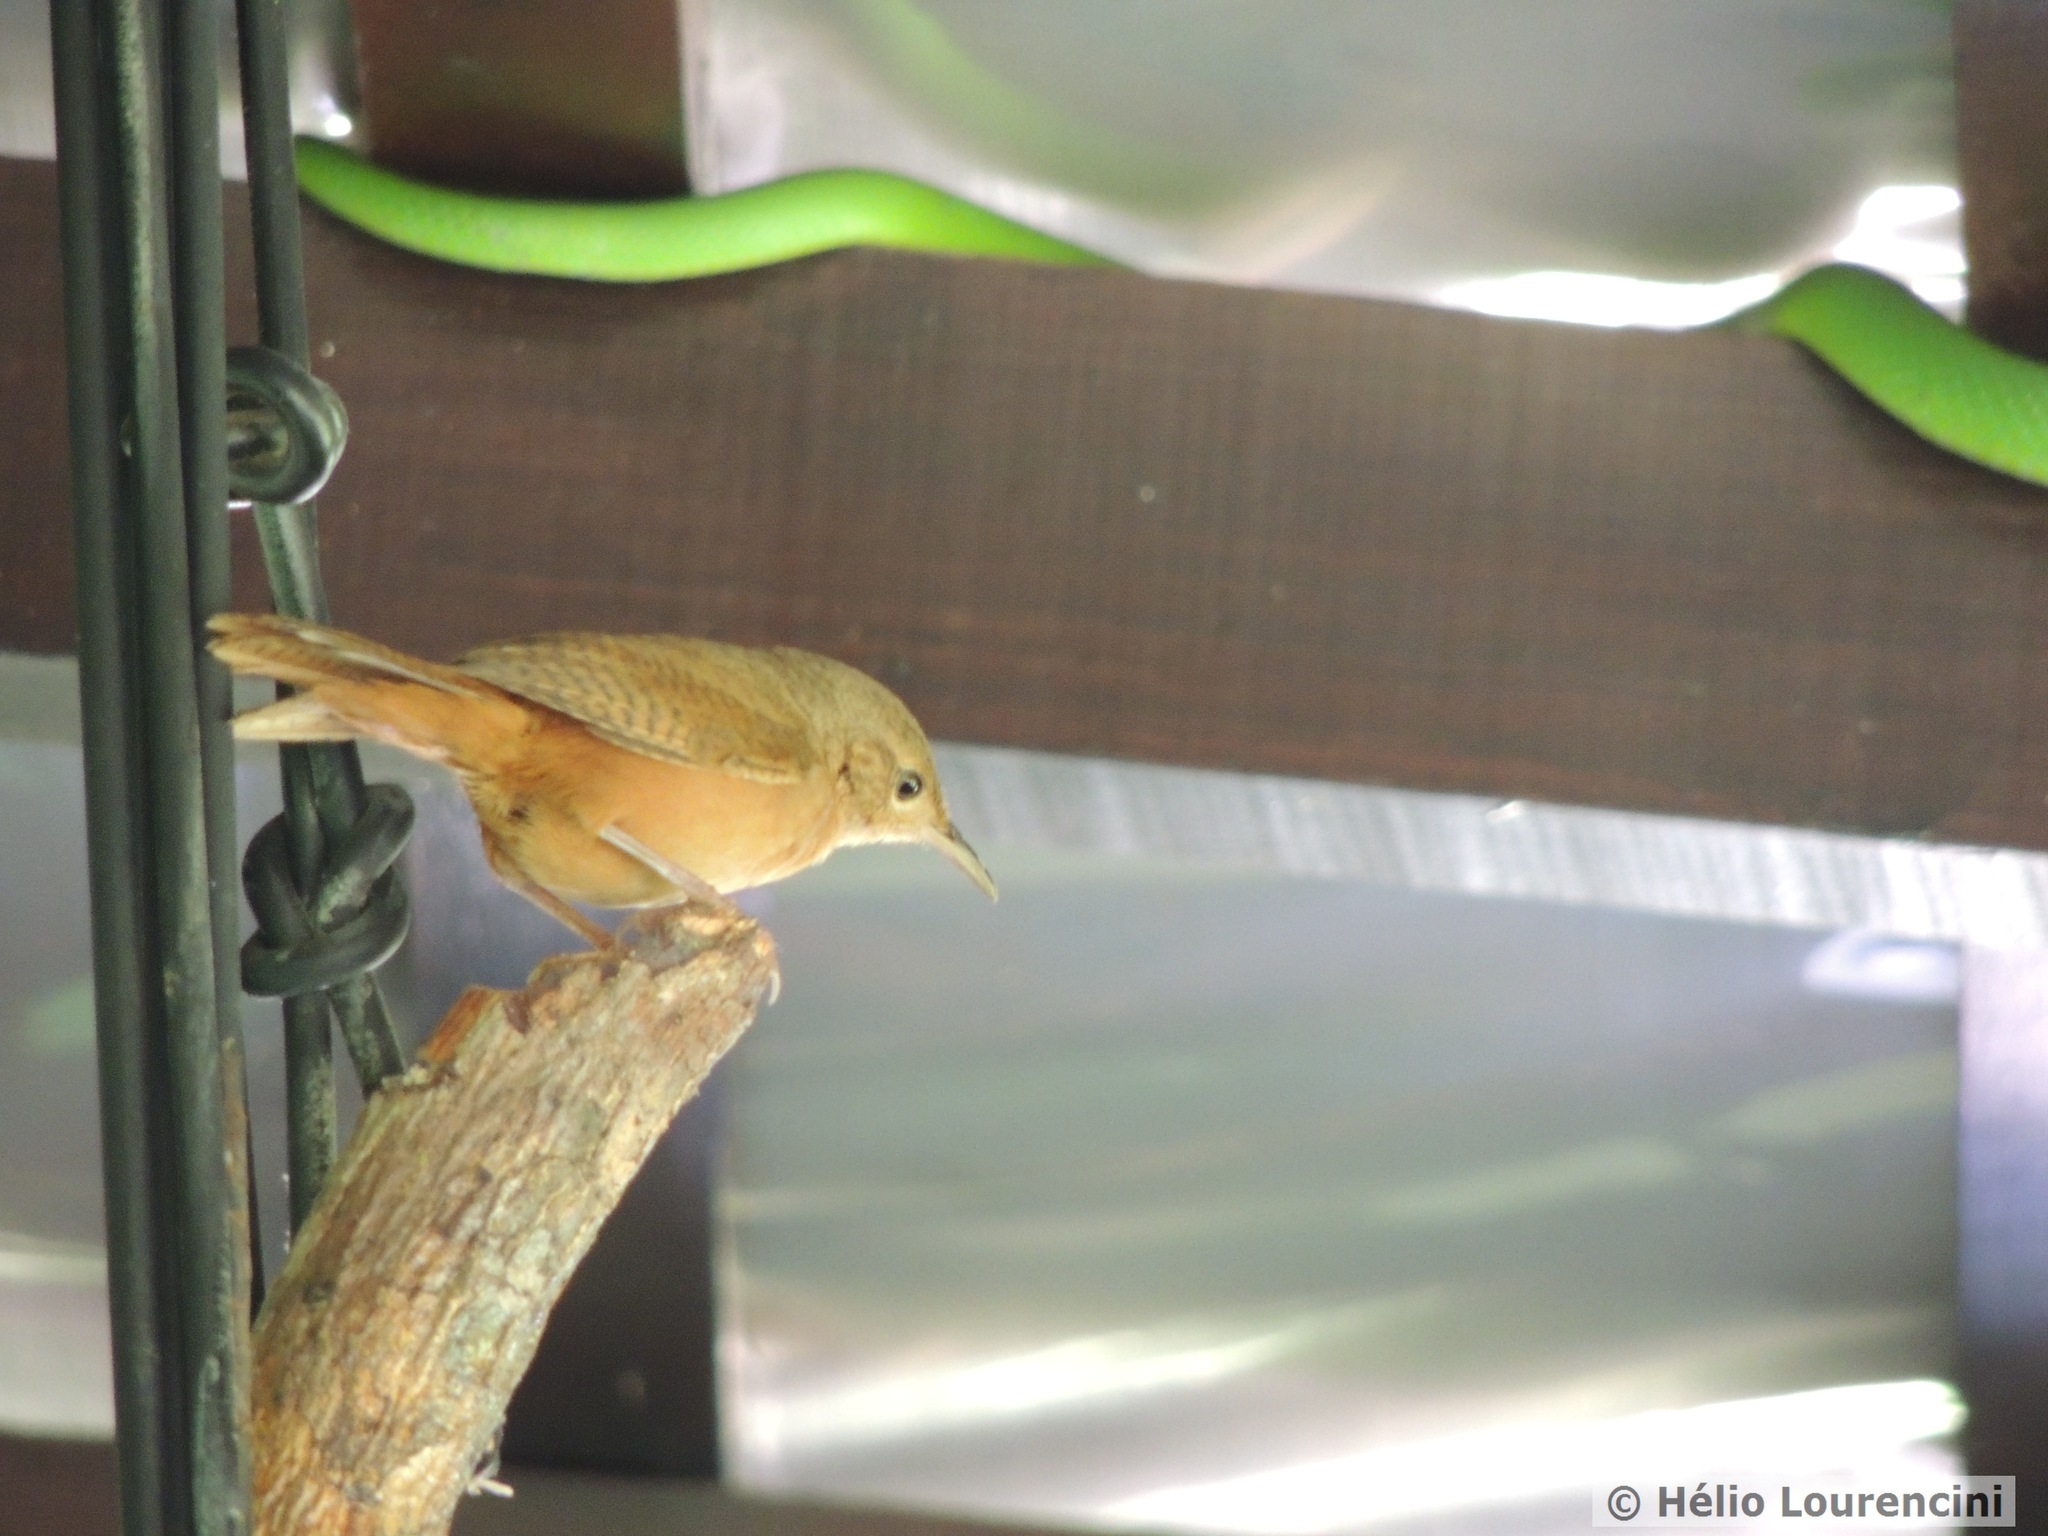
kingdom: Animalia
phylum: Chordata
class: Aves
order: Passeriformes
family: Troglodytidae
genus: Troglodytes
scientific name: Troglodytes aedon
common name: House wren
